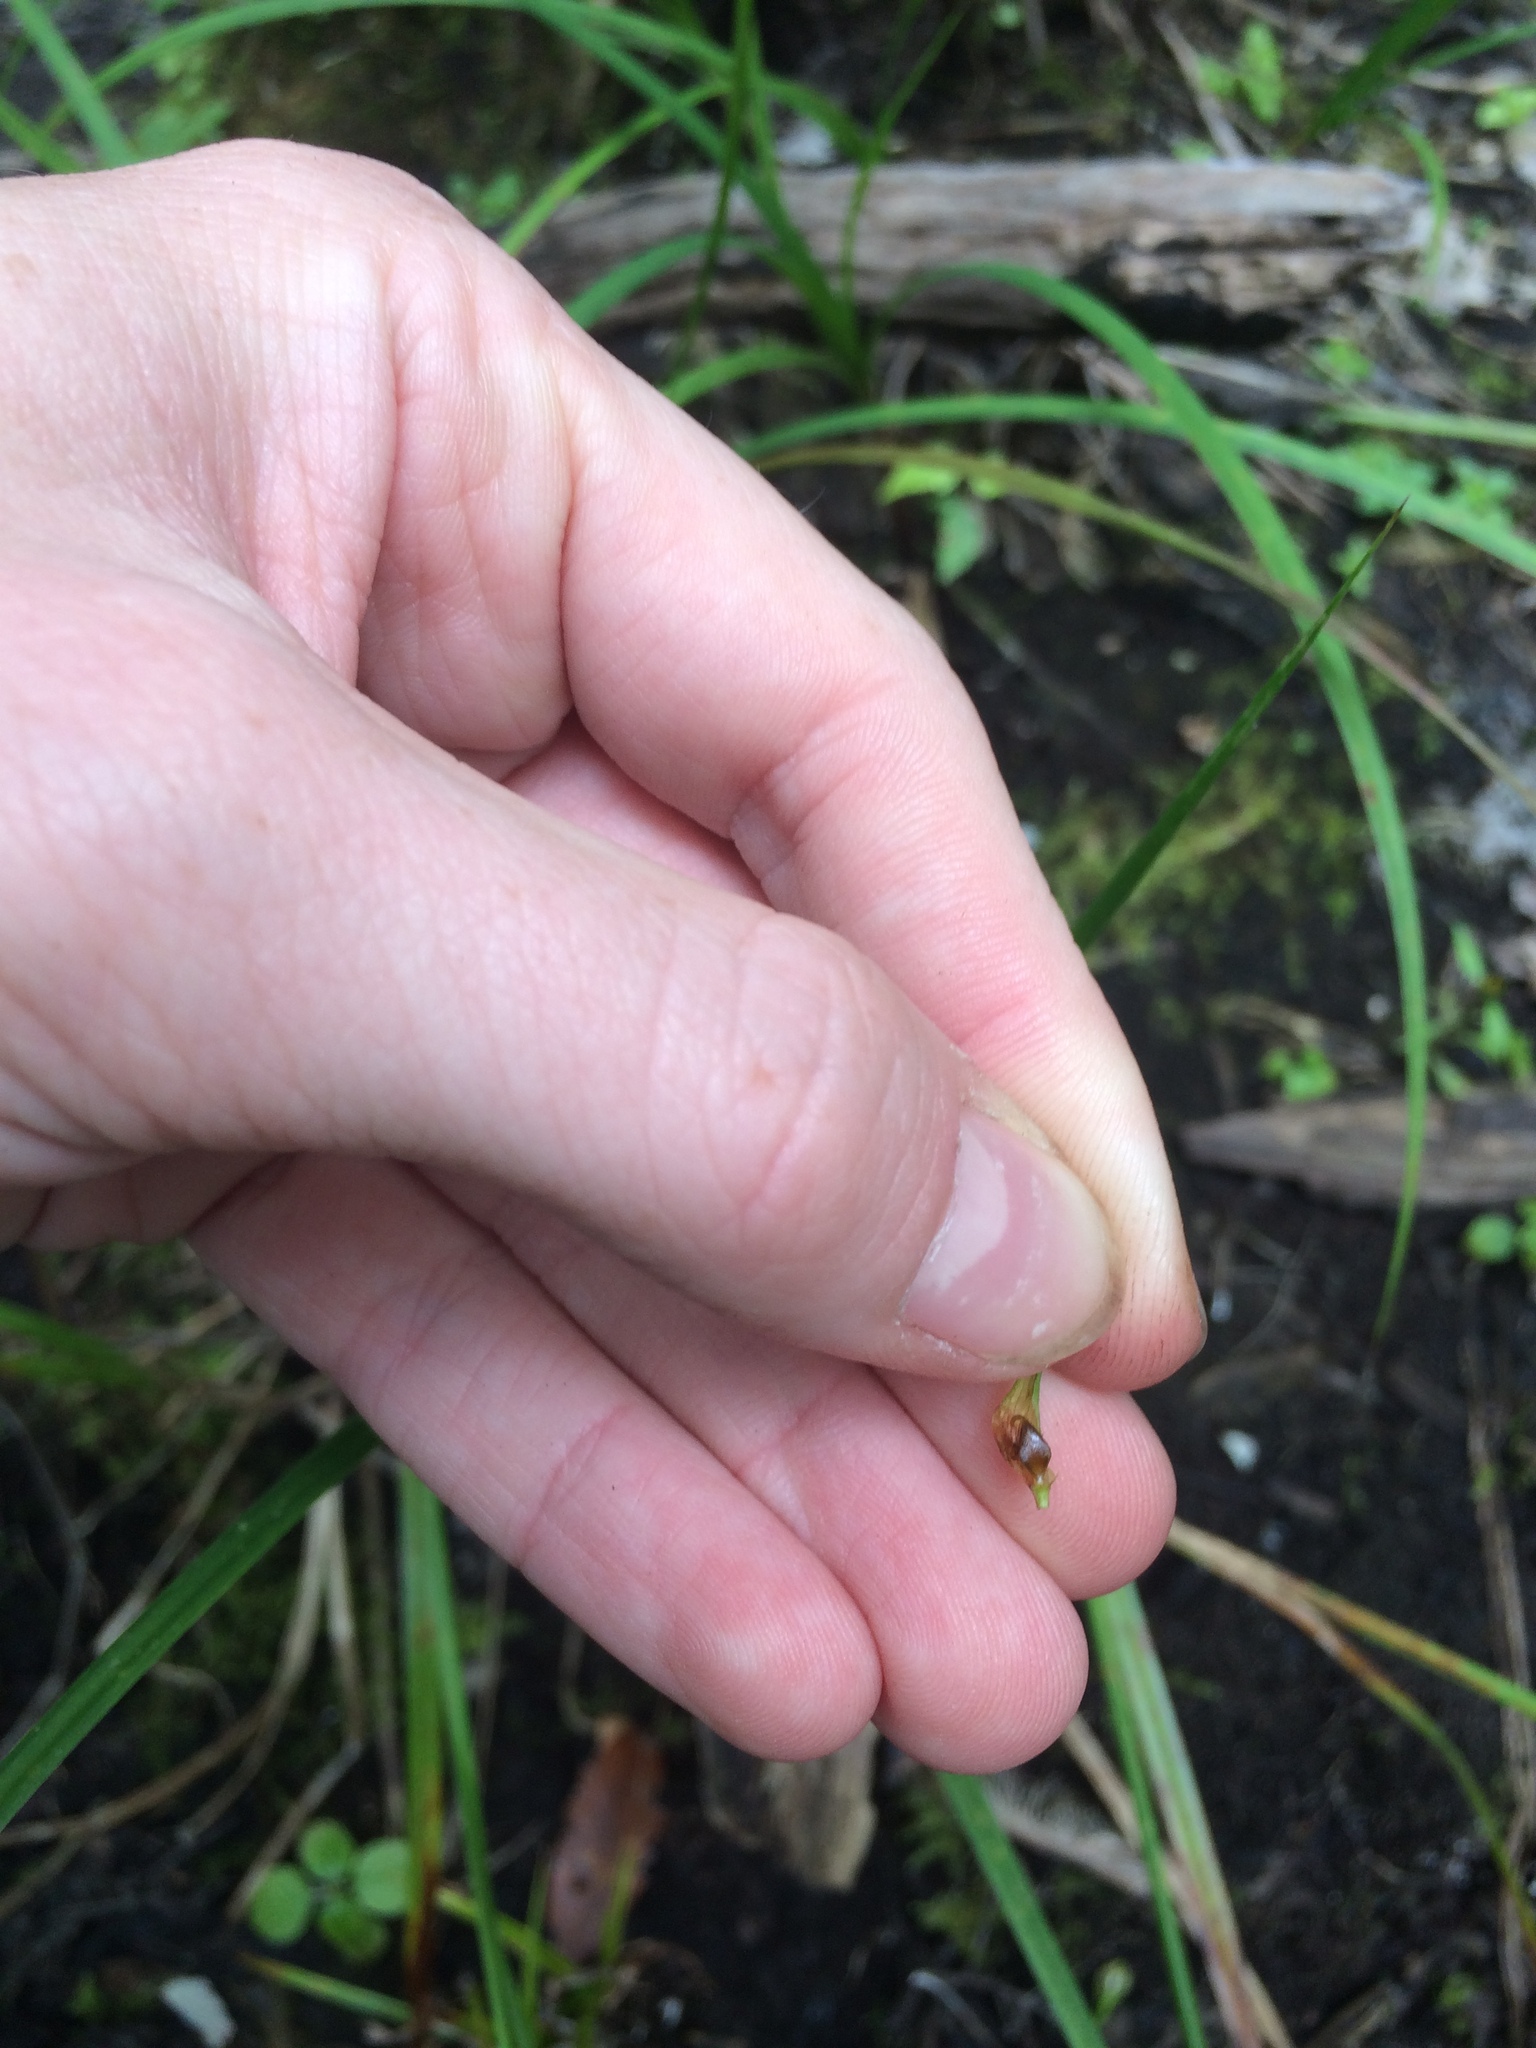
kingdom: Plantae
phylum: Tracheophyta
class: Liliopsida
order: Poales
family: Cyperaceae
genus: Carex
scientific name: Carex lupulina
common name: Hop sedge
